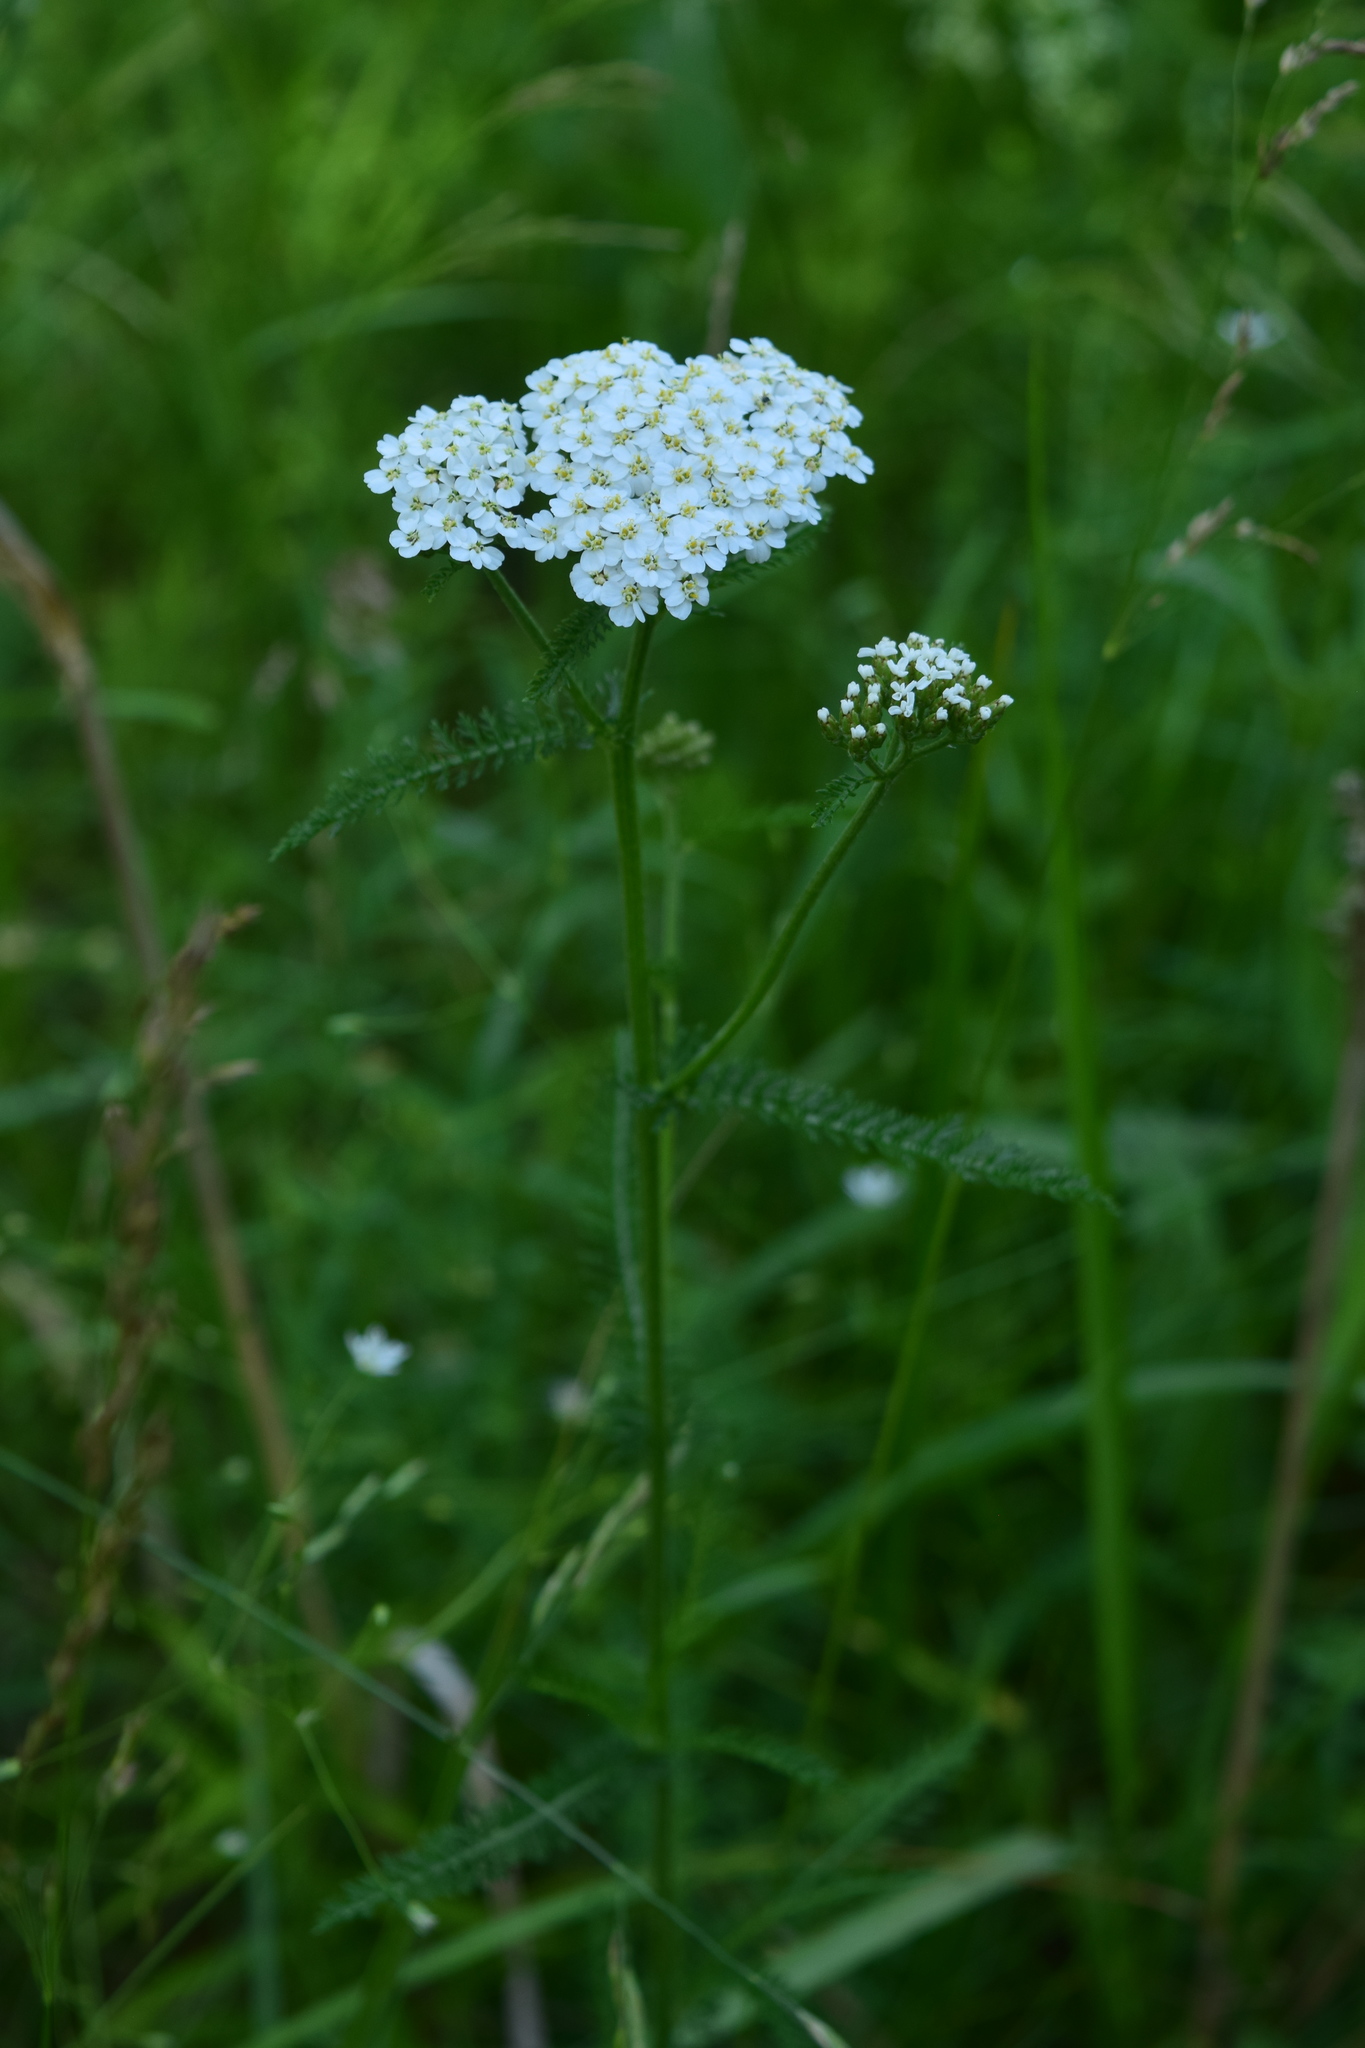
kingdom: Plantae
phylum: Tracheophyta
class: Magnoliopsida
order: Asterales
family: Asteraceae
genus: Achillea
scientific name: Achillea millefolium
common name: Yarrow
